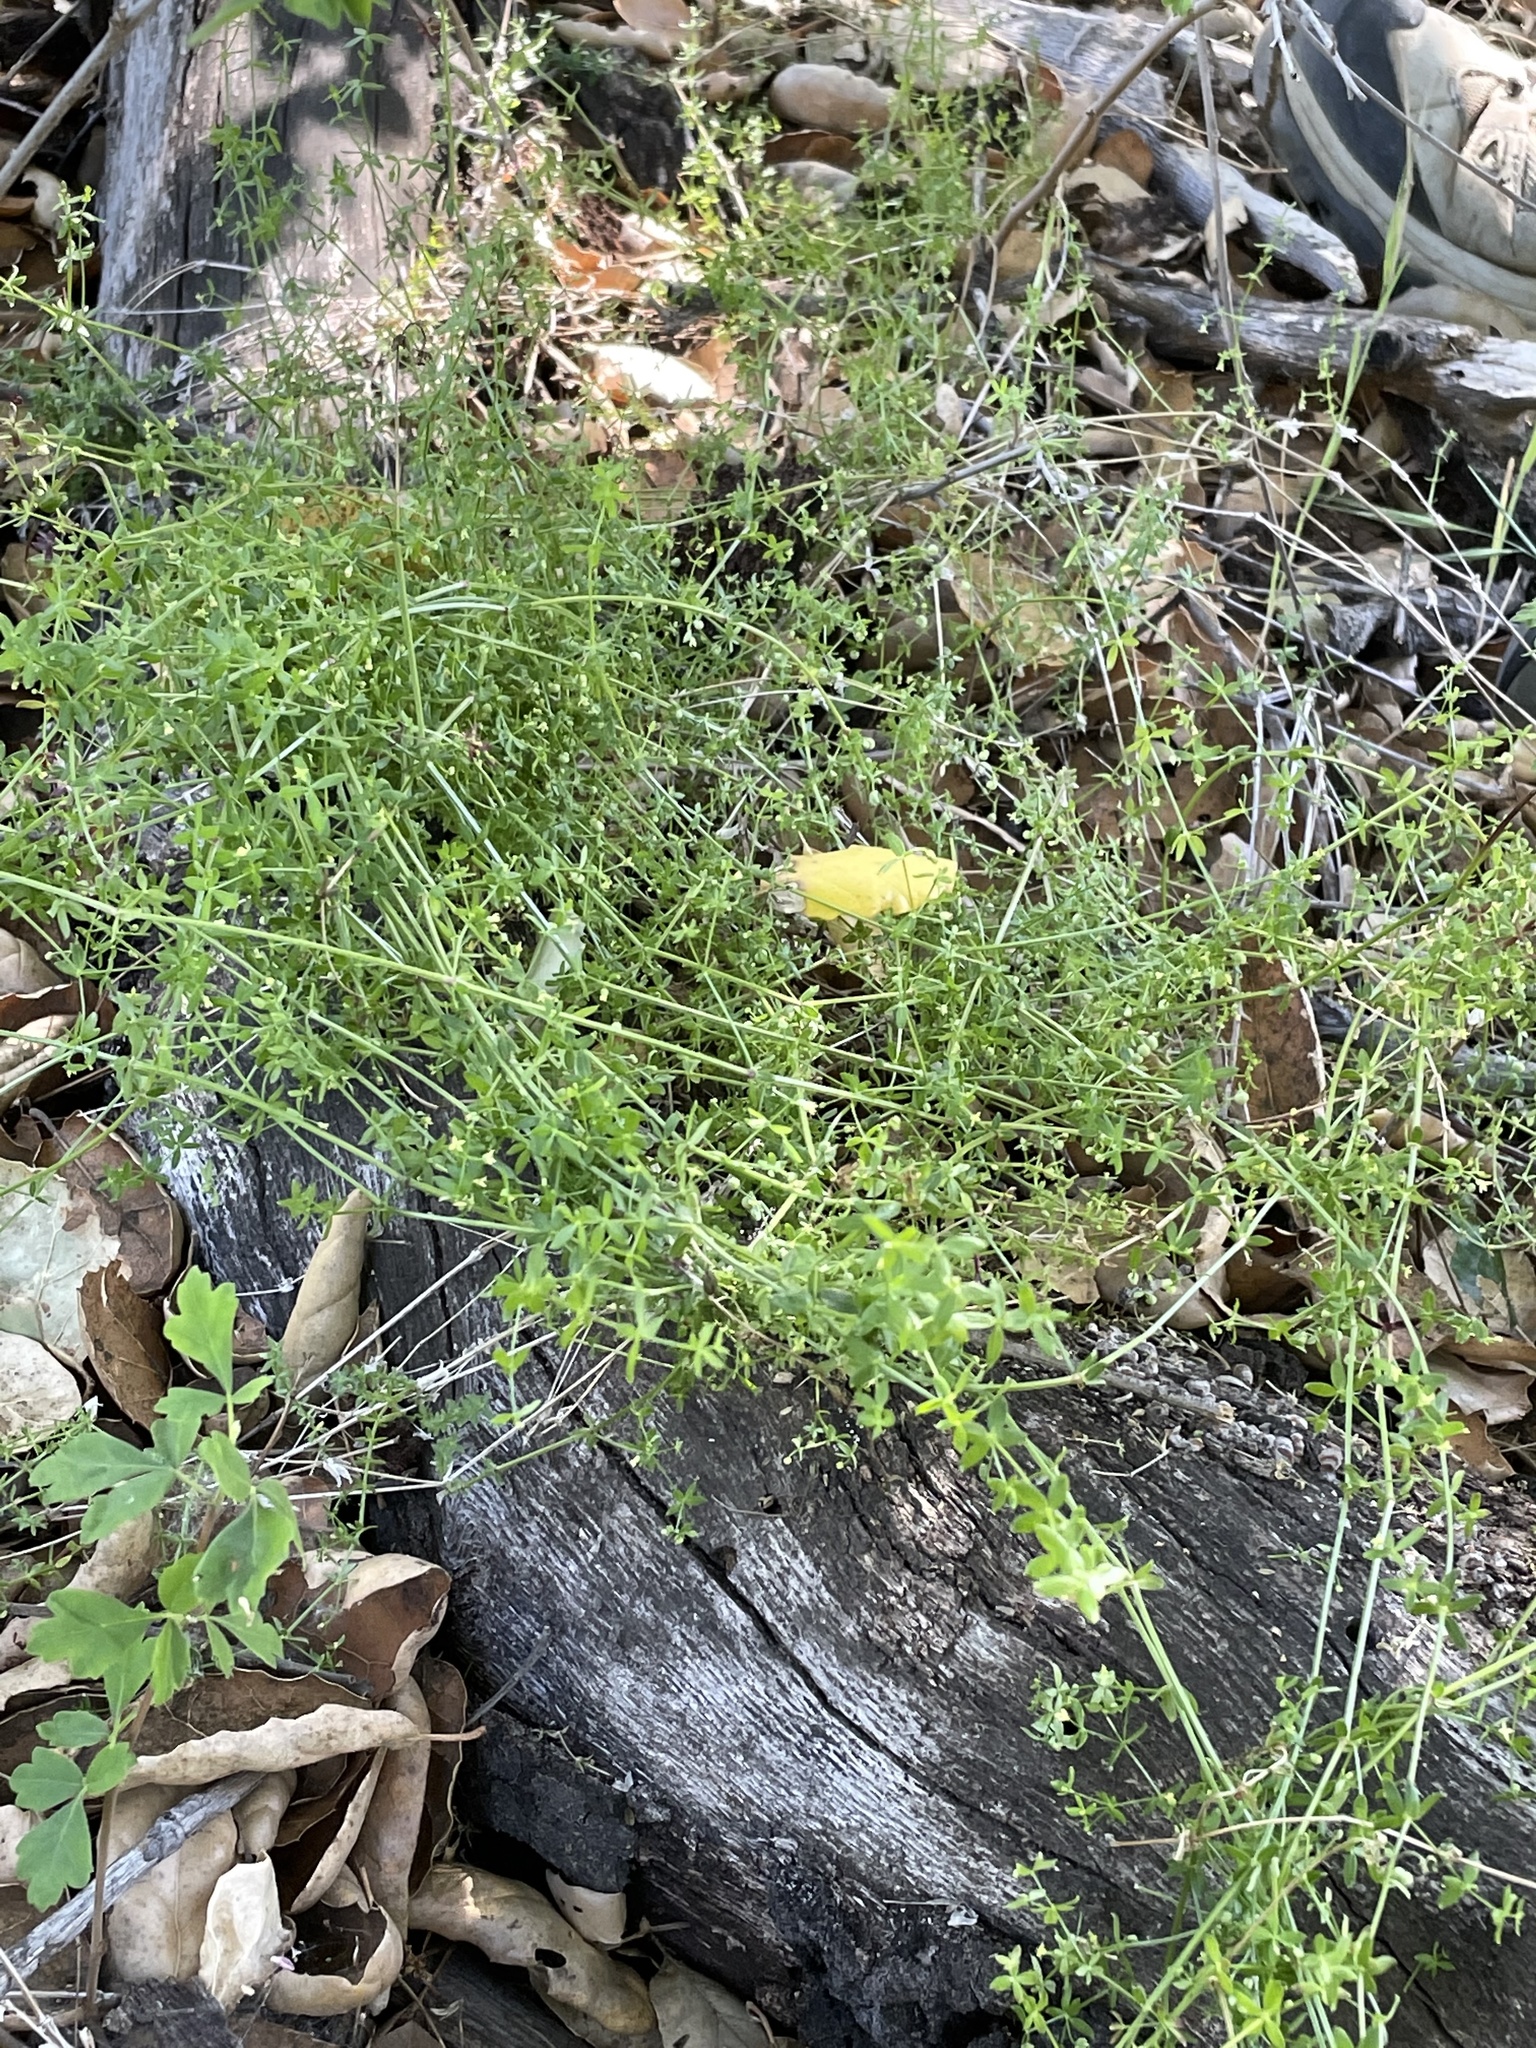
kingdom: Plantae
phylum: Tracheophyta
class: Magnoliopsida
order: Gentianales
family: Rubiaceae
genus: Galium
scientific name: Galium porrigens
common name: Climbing bedstraw
